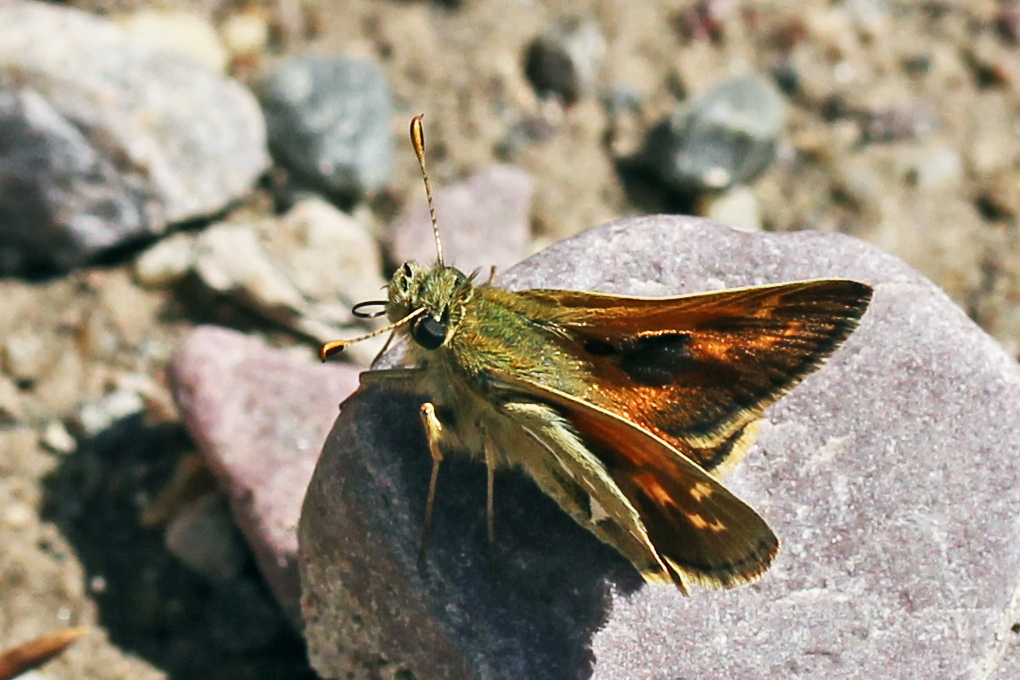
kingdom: Animalia
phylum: Arthropoda
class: Insecta
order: Lepidoptera
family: Hesperiidae
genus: Polites
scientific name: Polites sabuleti
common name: Sandhill skipper
